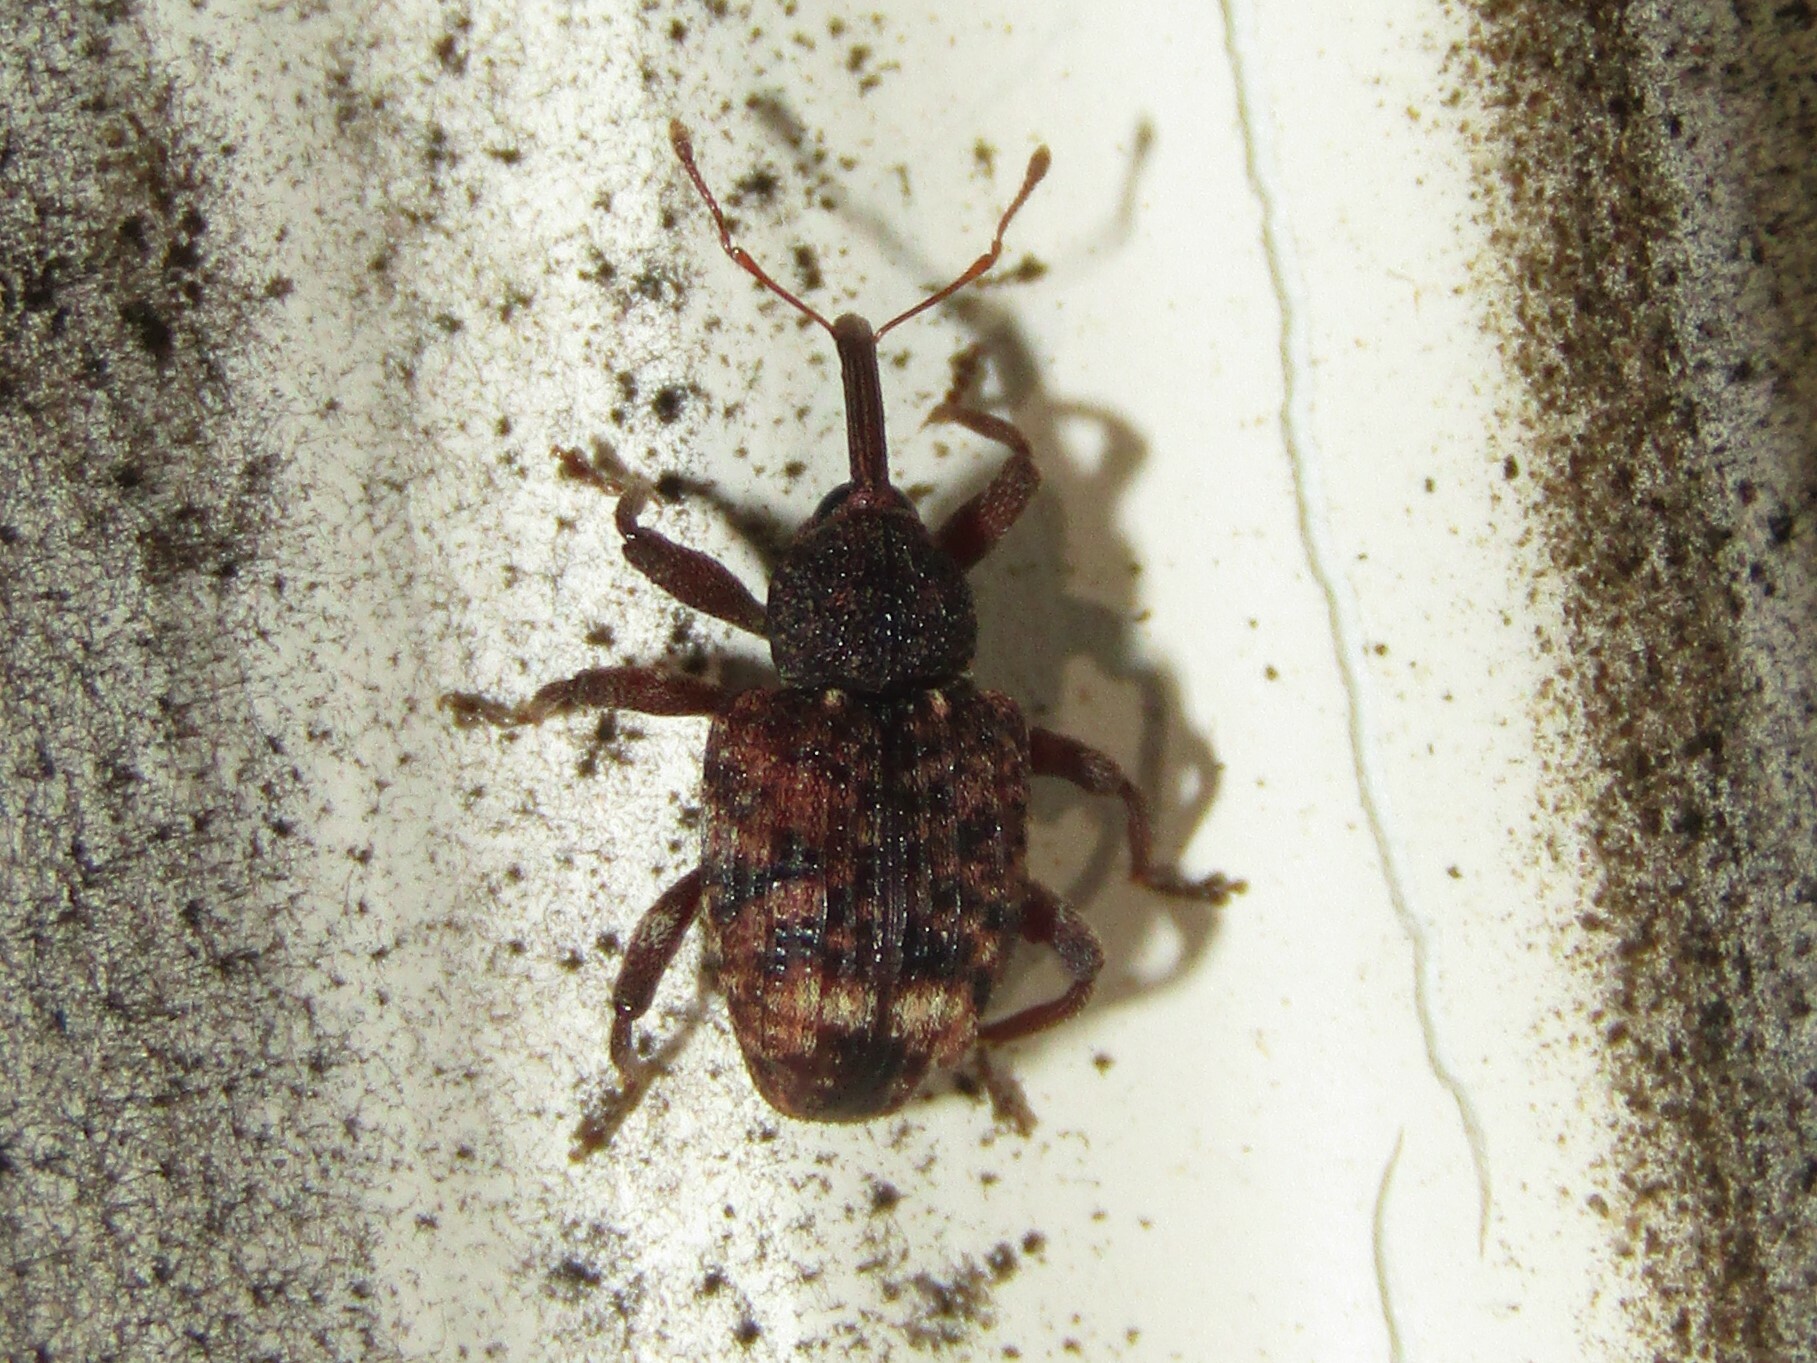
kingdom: Animalia
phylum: Arthropoda
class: Insecta
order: Coleoptera
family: Curculionidae
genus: Conotrachelus
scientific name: Conotrachelus posticatus
